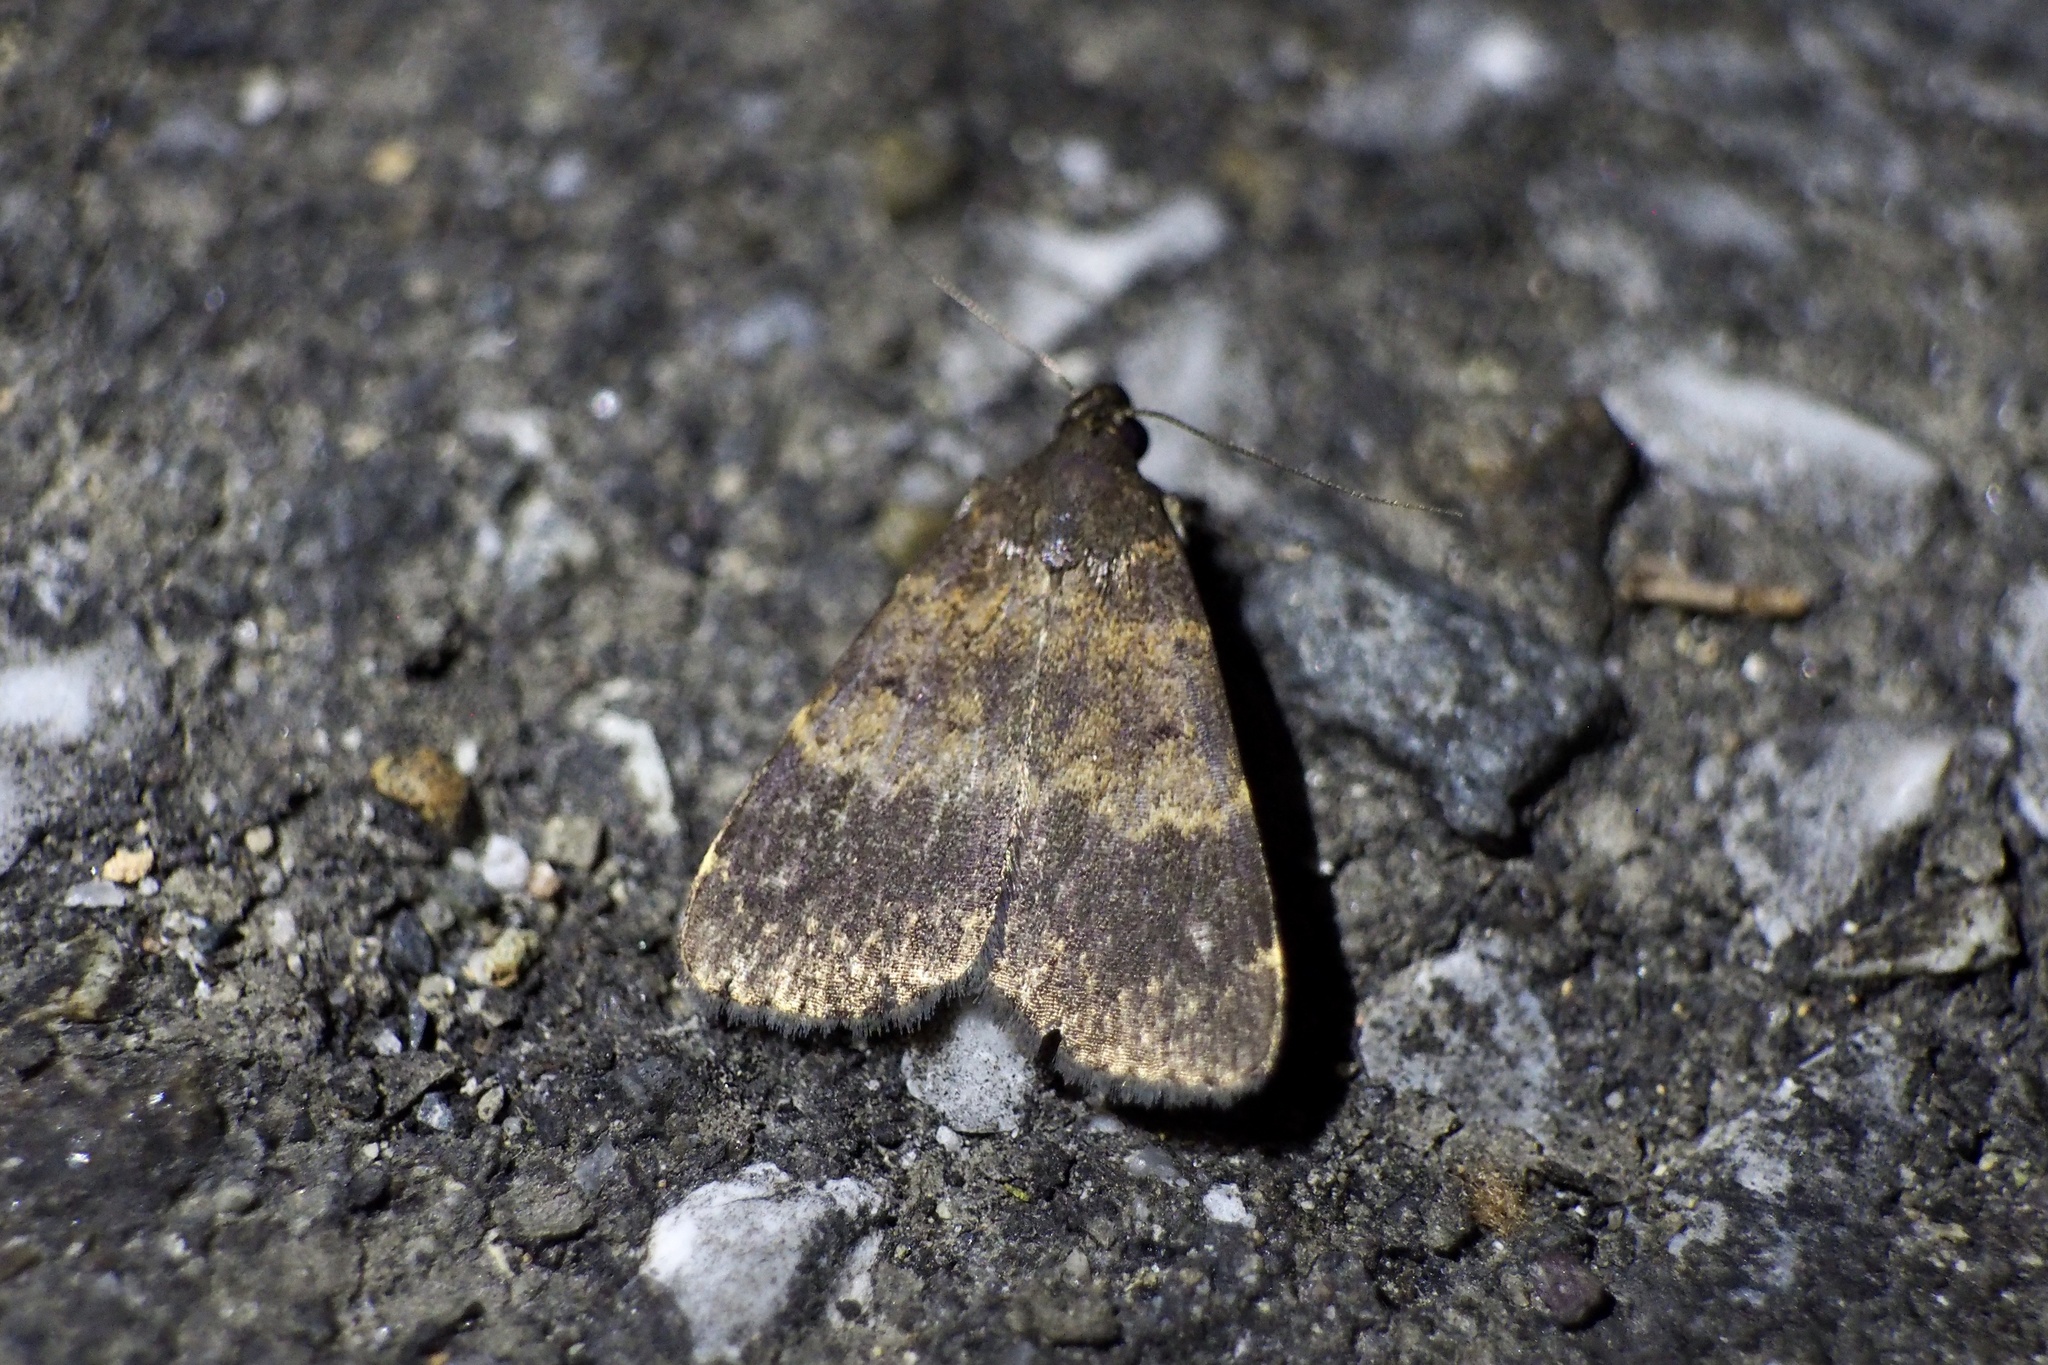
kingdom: Animalia
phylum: Arthropoda
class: Insecta
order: Lepidoptera
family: Erebidae
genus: Hydrillodes
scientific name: Hydrillodes lentalis
